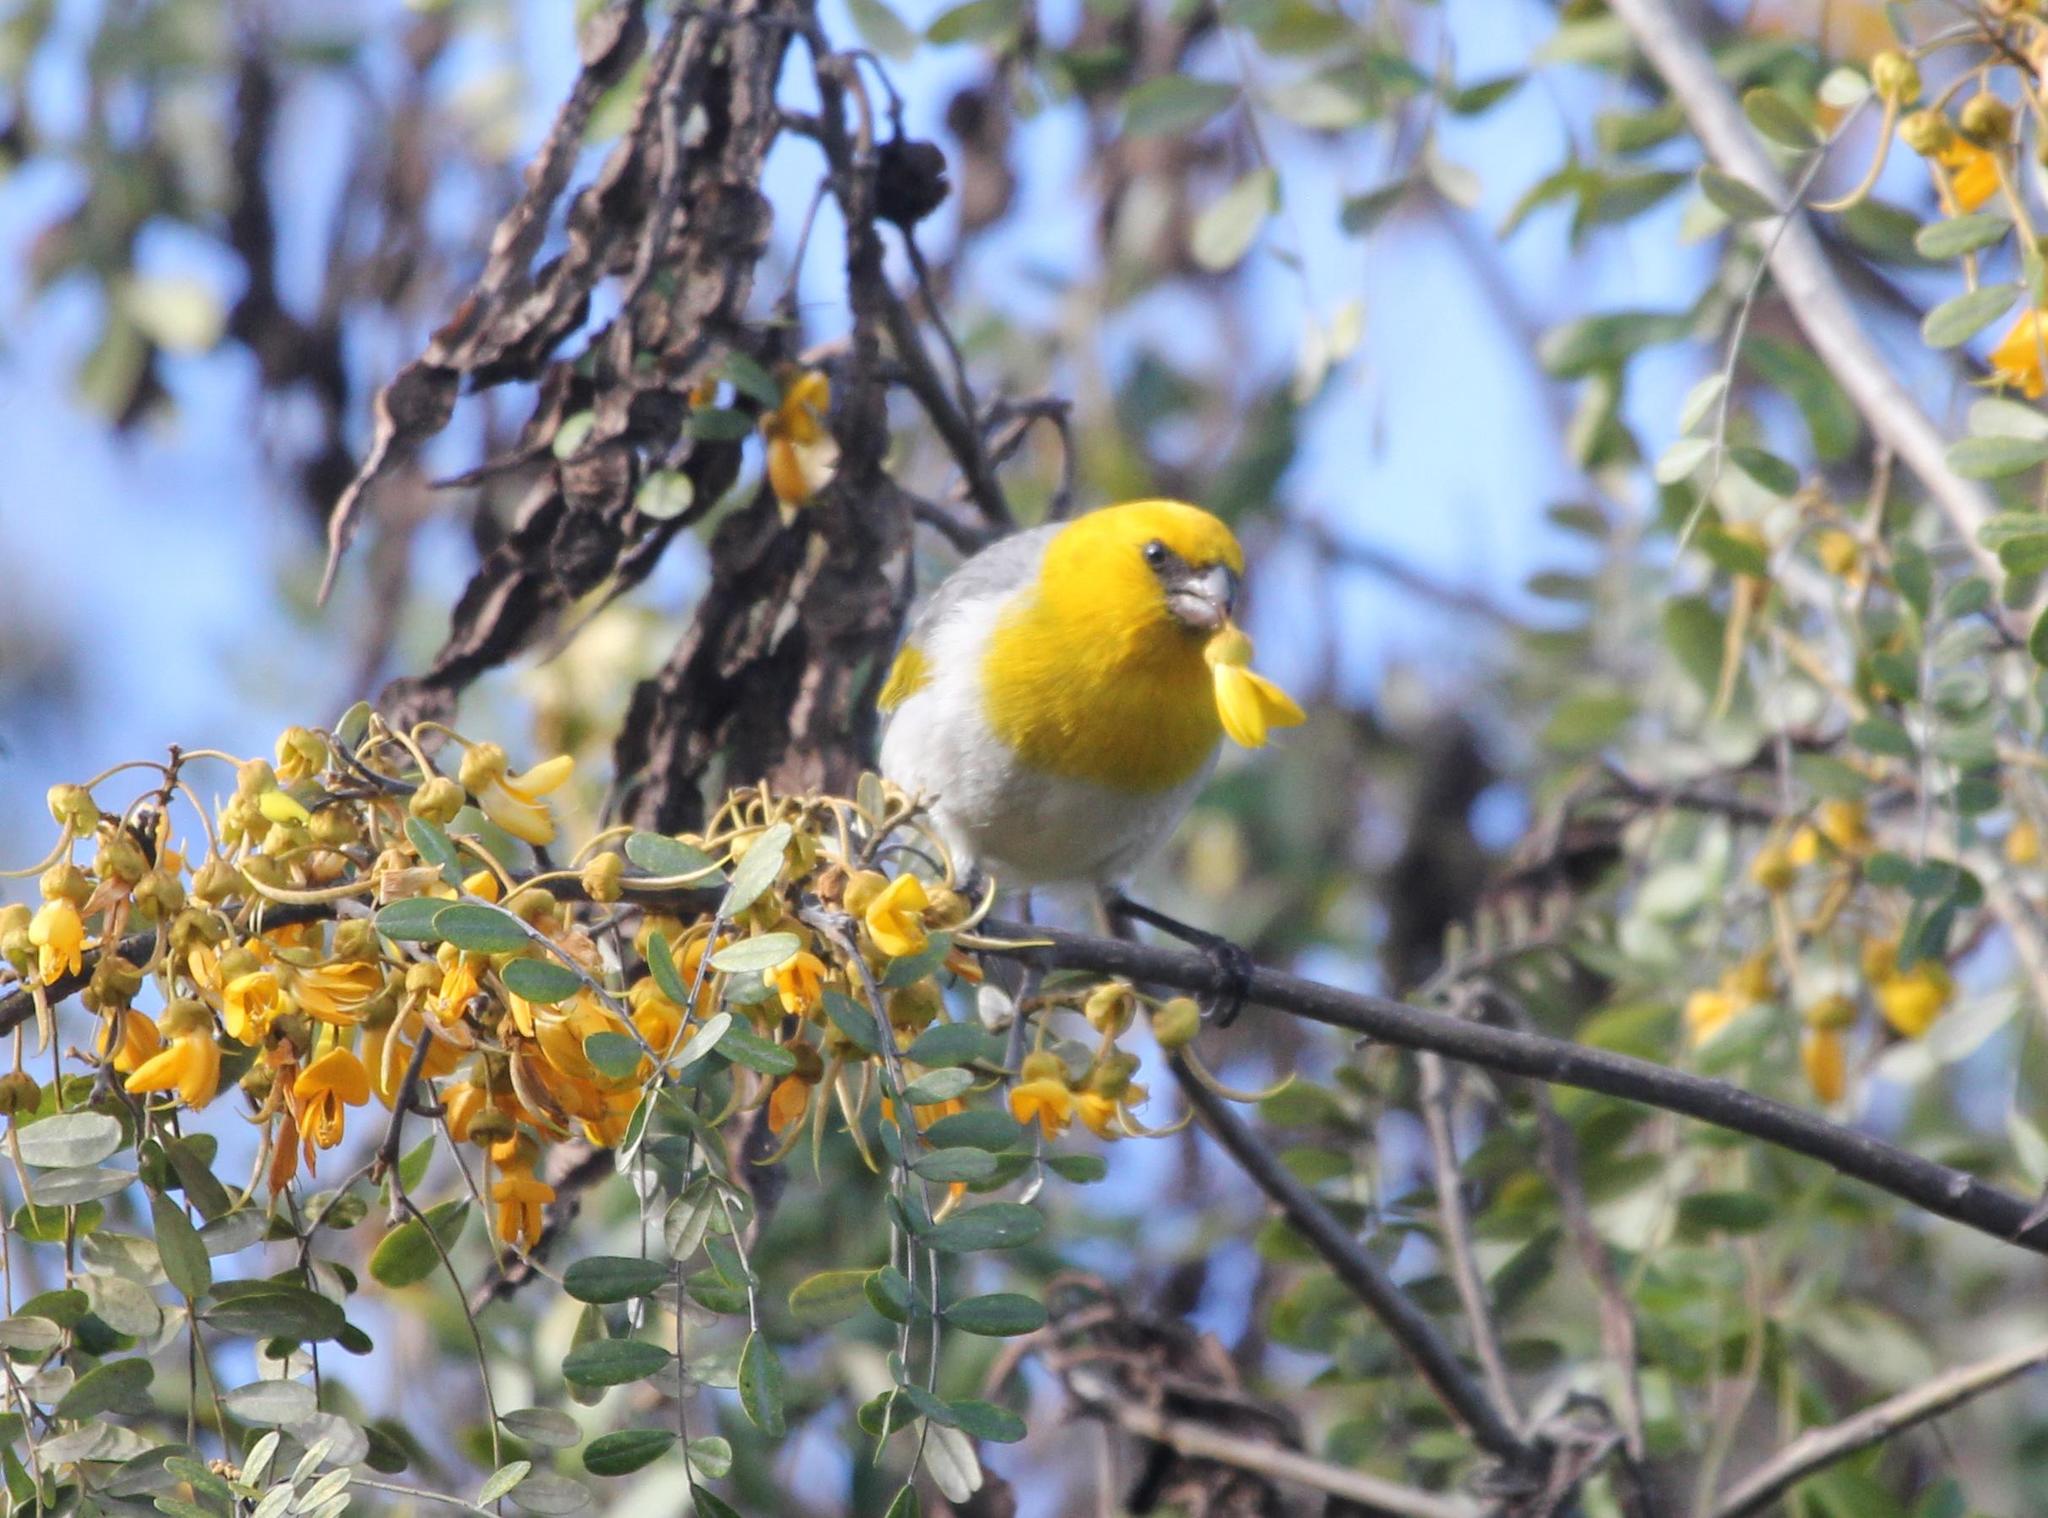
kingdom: Animalia
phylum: Chordata
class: Aves
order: Passeriformes
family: Fringillidae
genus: Loxioides
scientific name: Loxioides bailleui
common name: Palila
